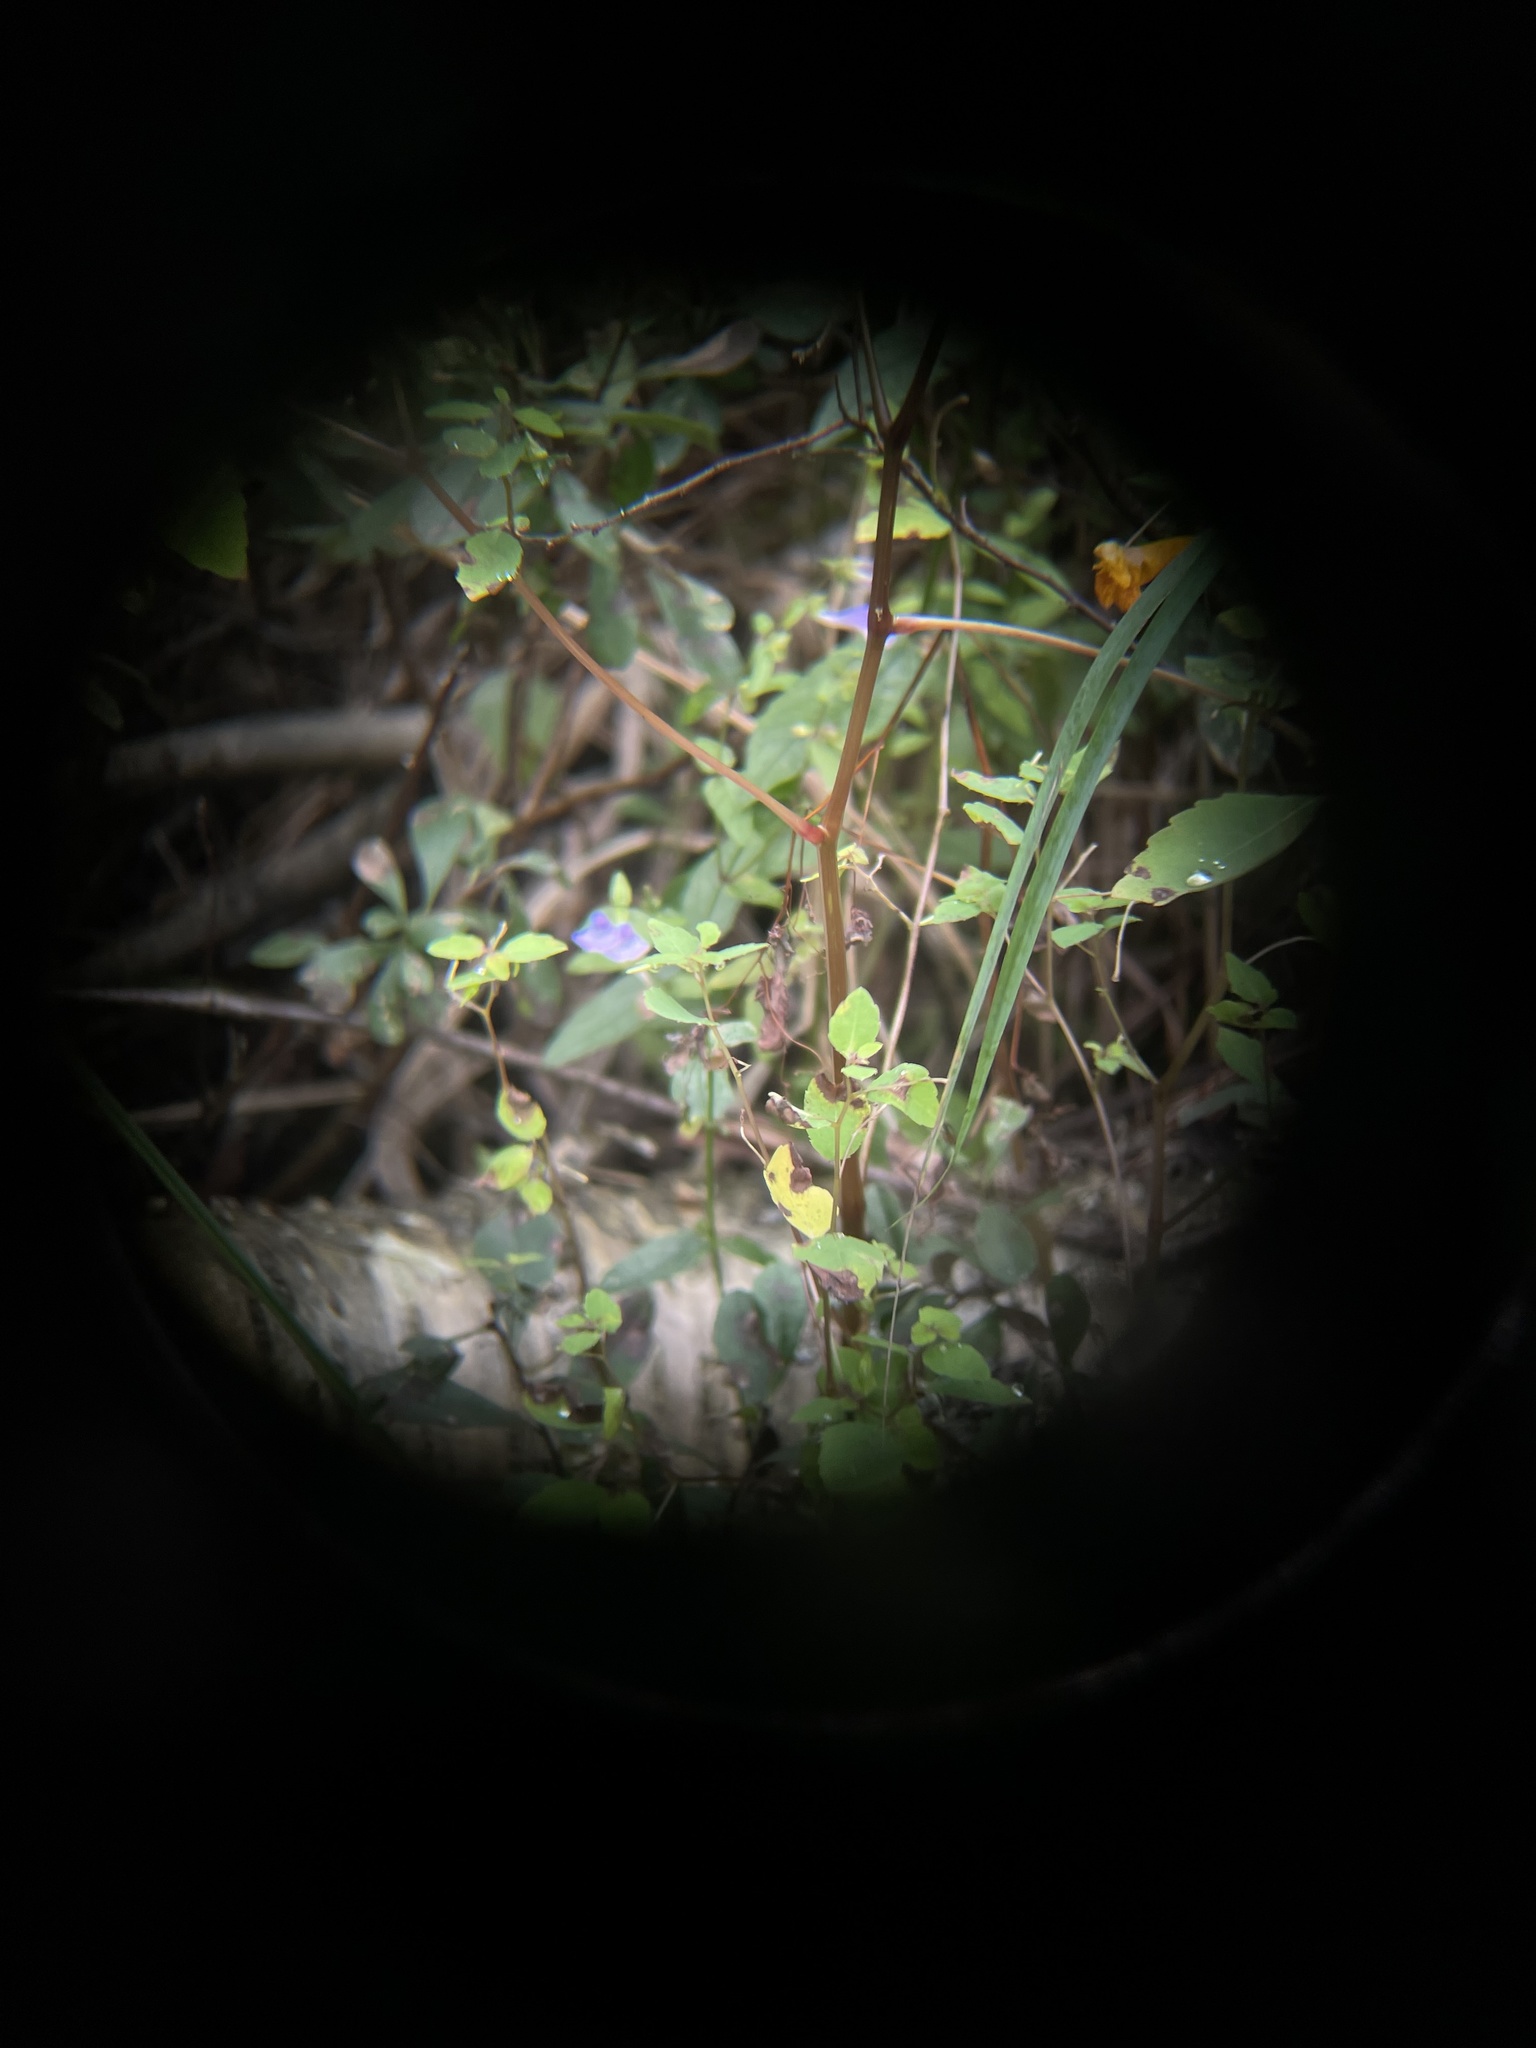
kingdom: Plantae
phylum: Tracheophyta
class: Magnoliopsida
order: Lamiales
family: Lamiaceae
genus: Scutellaria
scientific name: Scutellaria galericulata
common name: Skullcap
